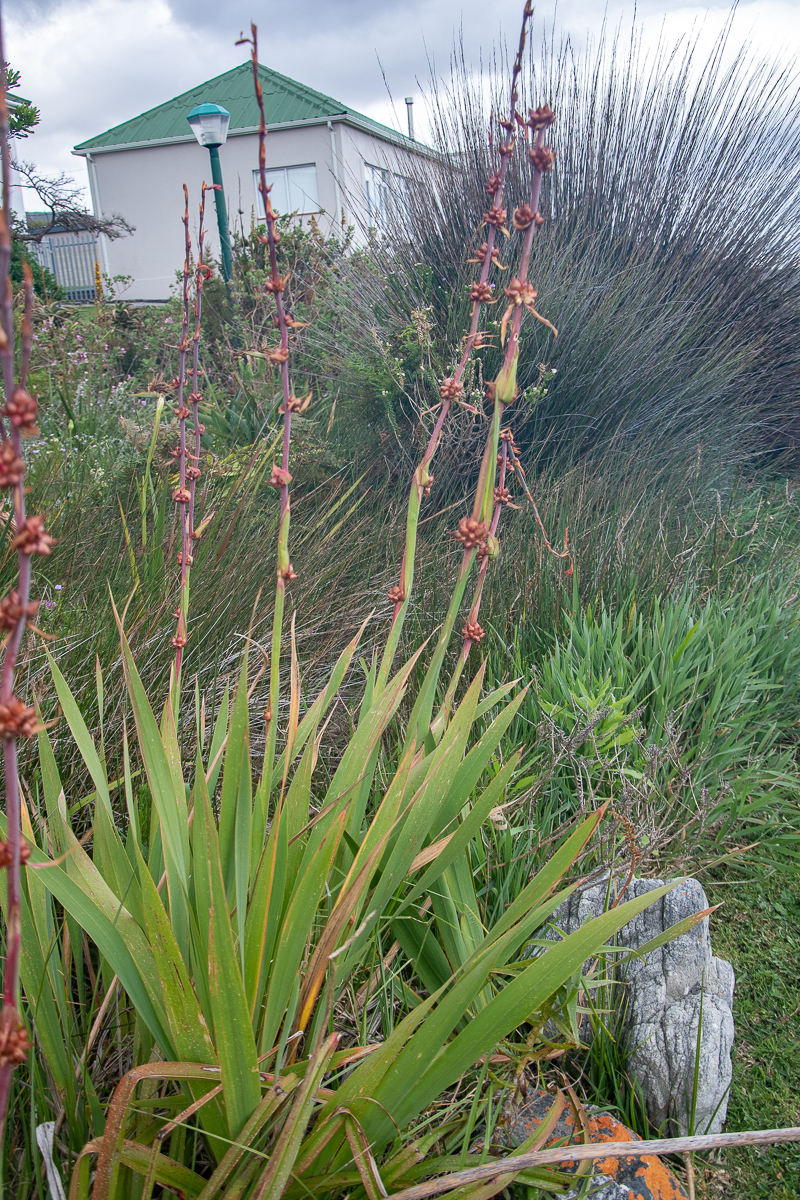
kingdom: Plantae
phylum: Tracheophyta
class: Liliopsida
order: Asparagales
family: Iridaceae
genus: Watsonia
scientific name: Watsonia meriana
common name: Bulbil bugle-lily
